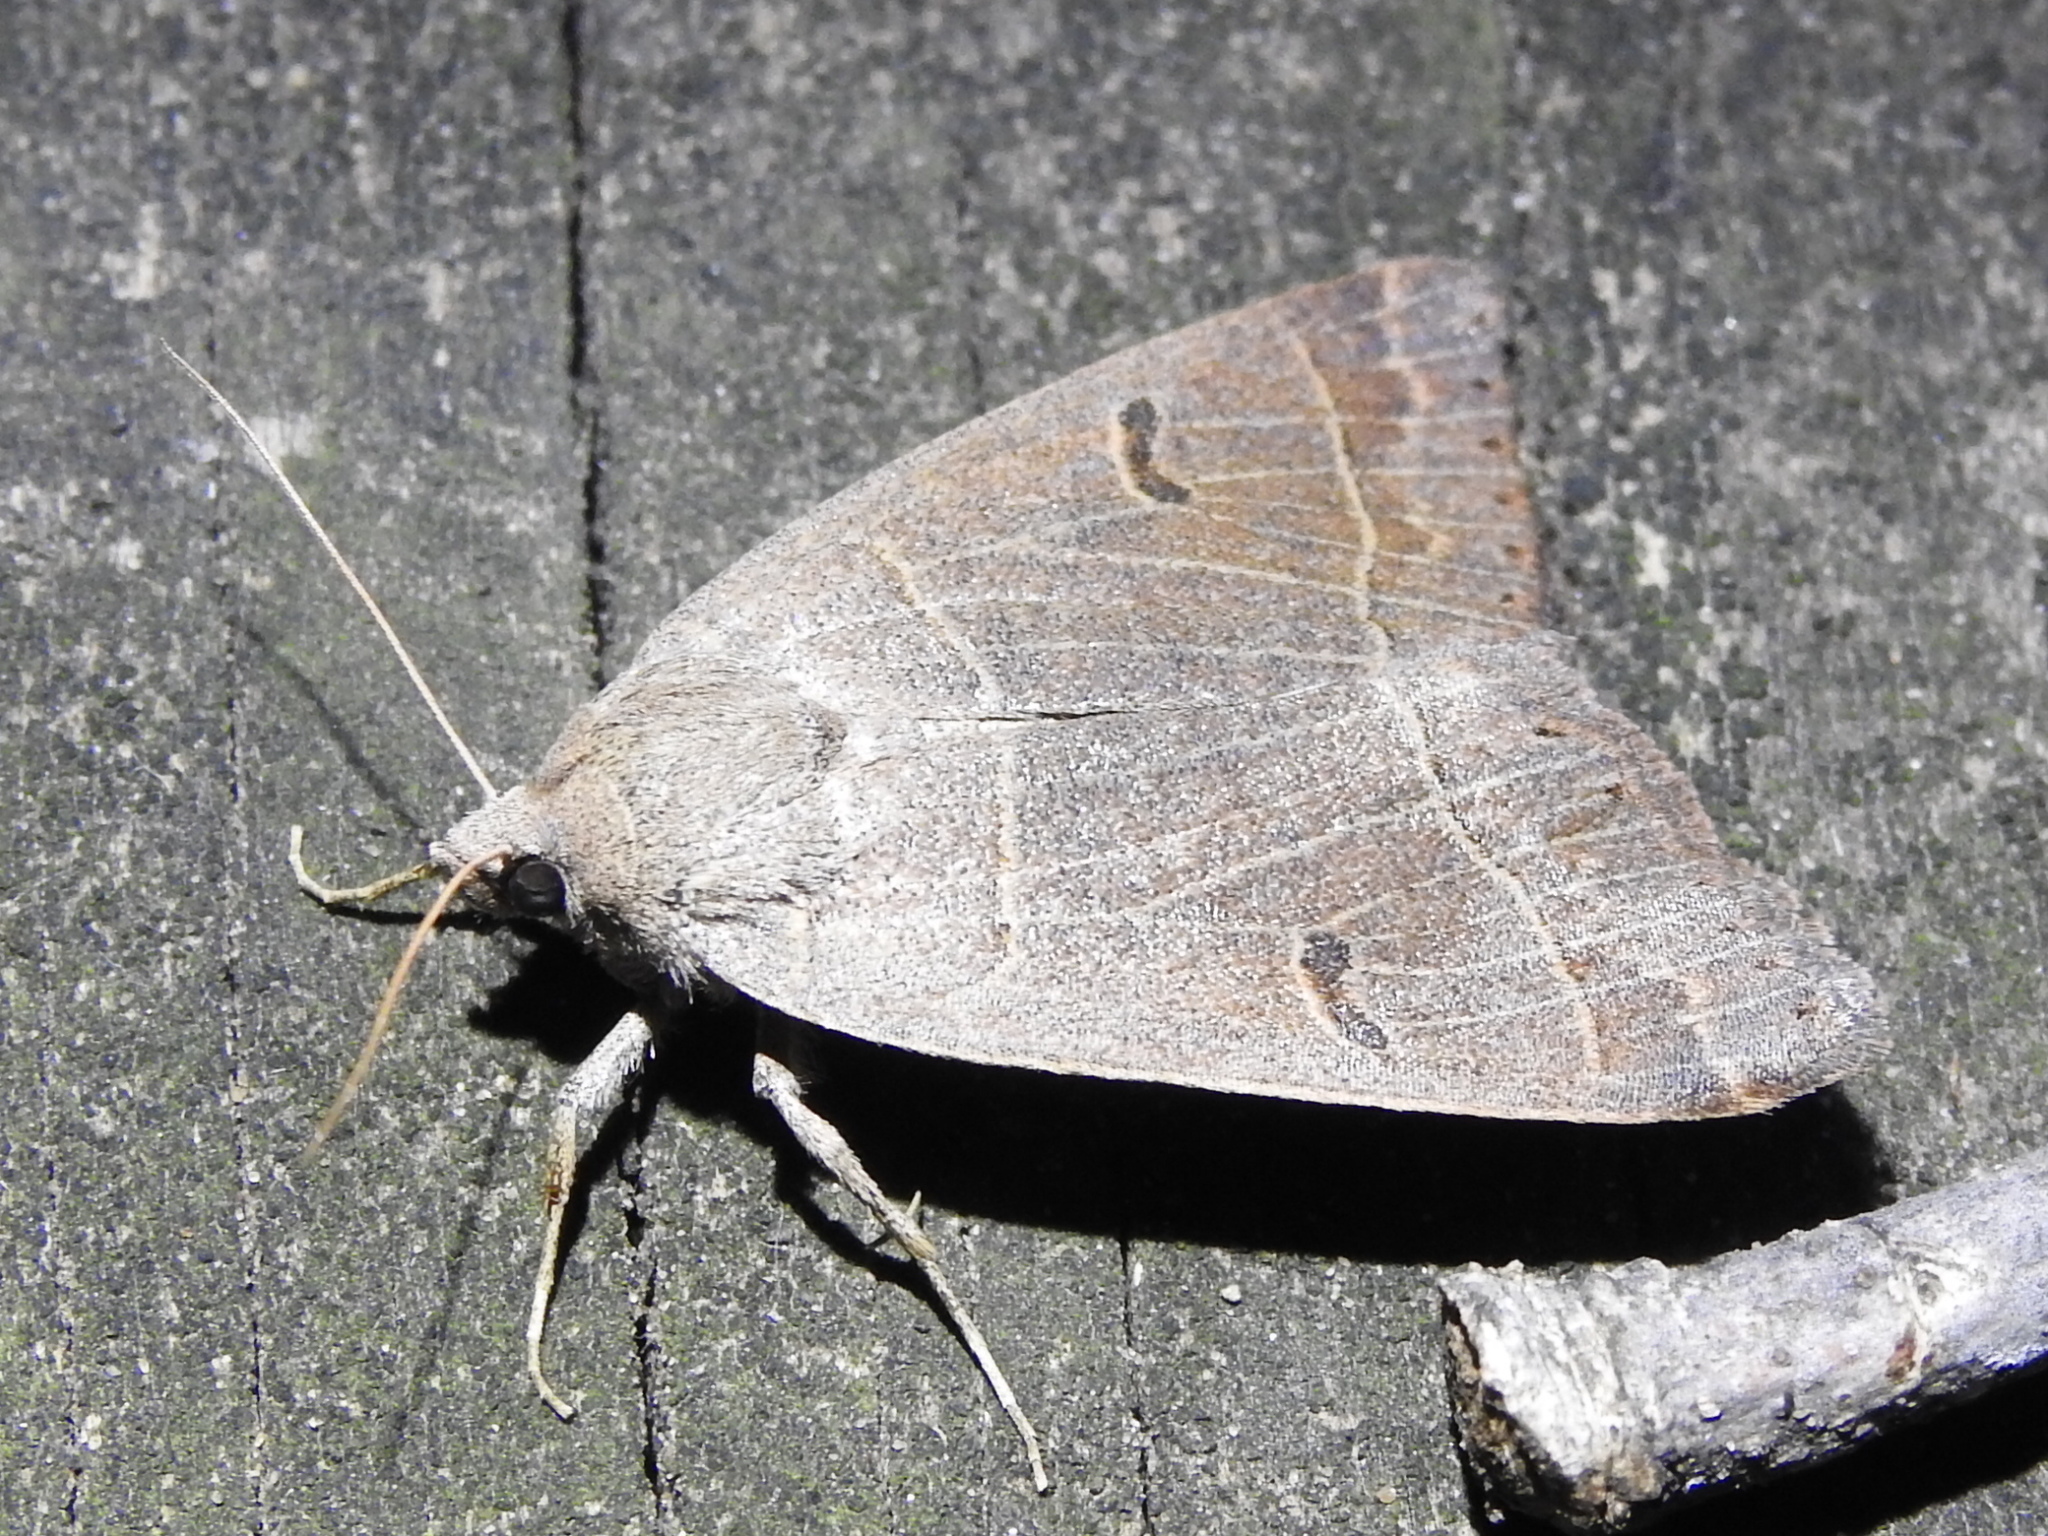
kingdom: Animalia
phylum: Arthropoda
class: Insecta
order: Lepidoptera
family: Erebidae
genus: Phoberia
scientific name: Phoberia atomaris
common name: Common oak moth
